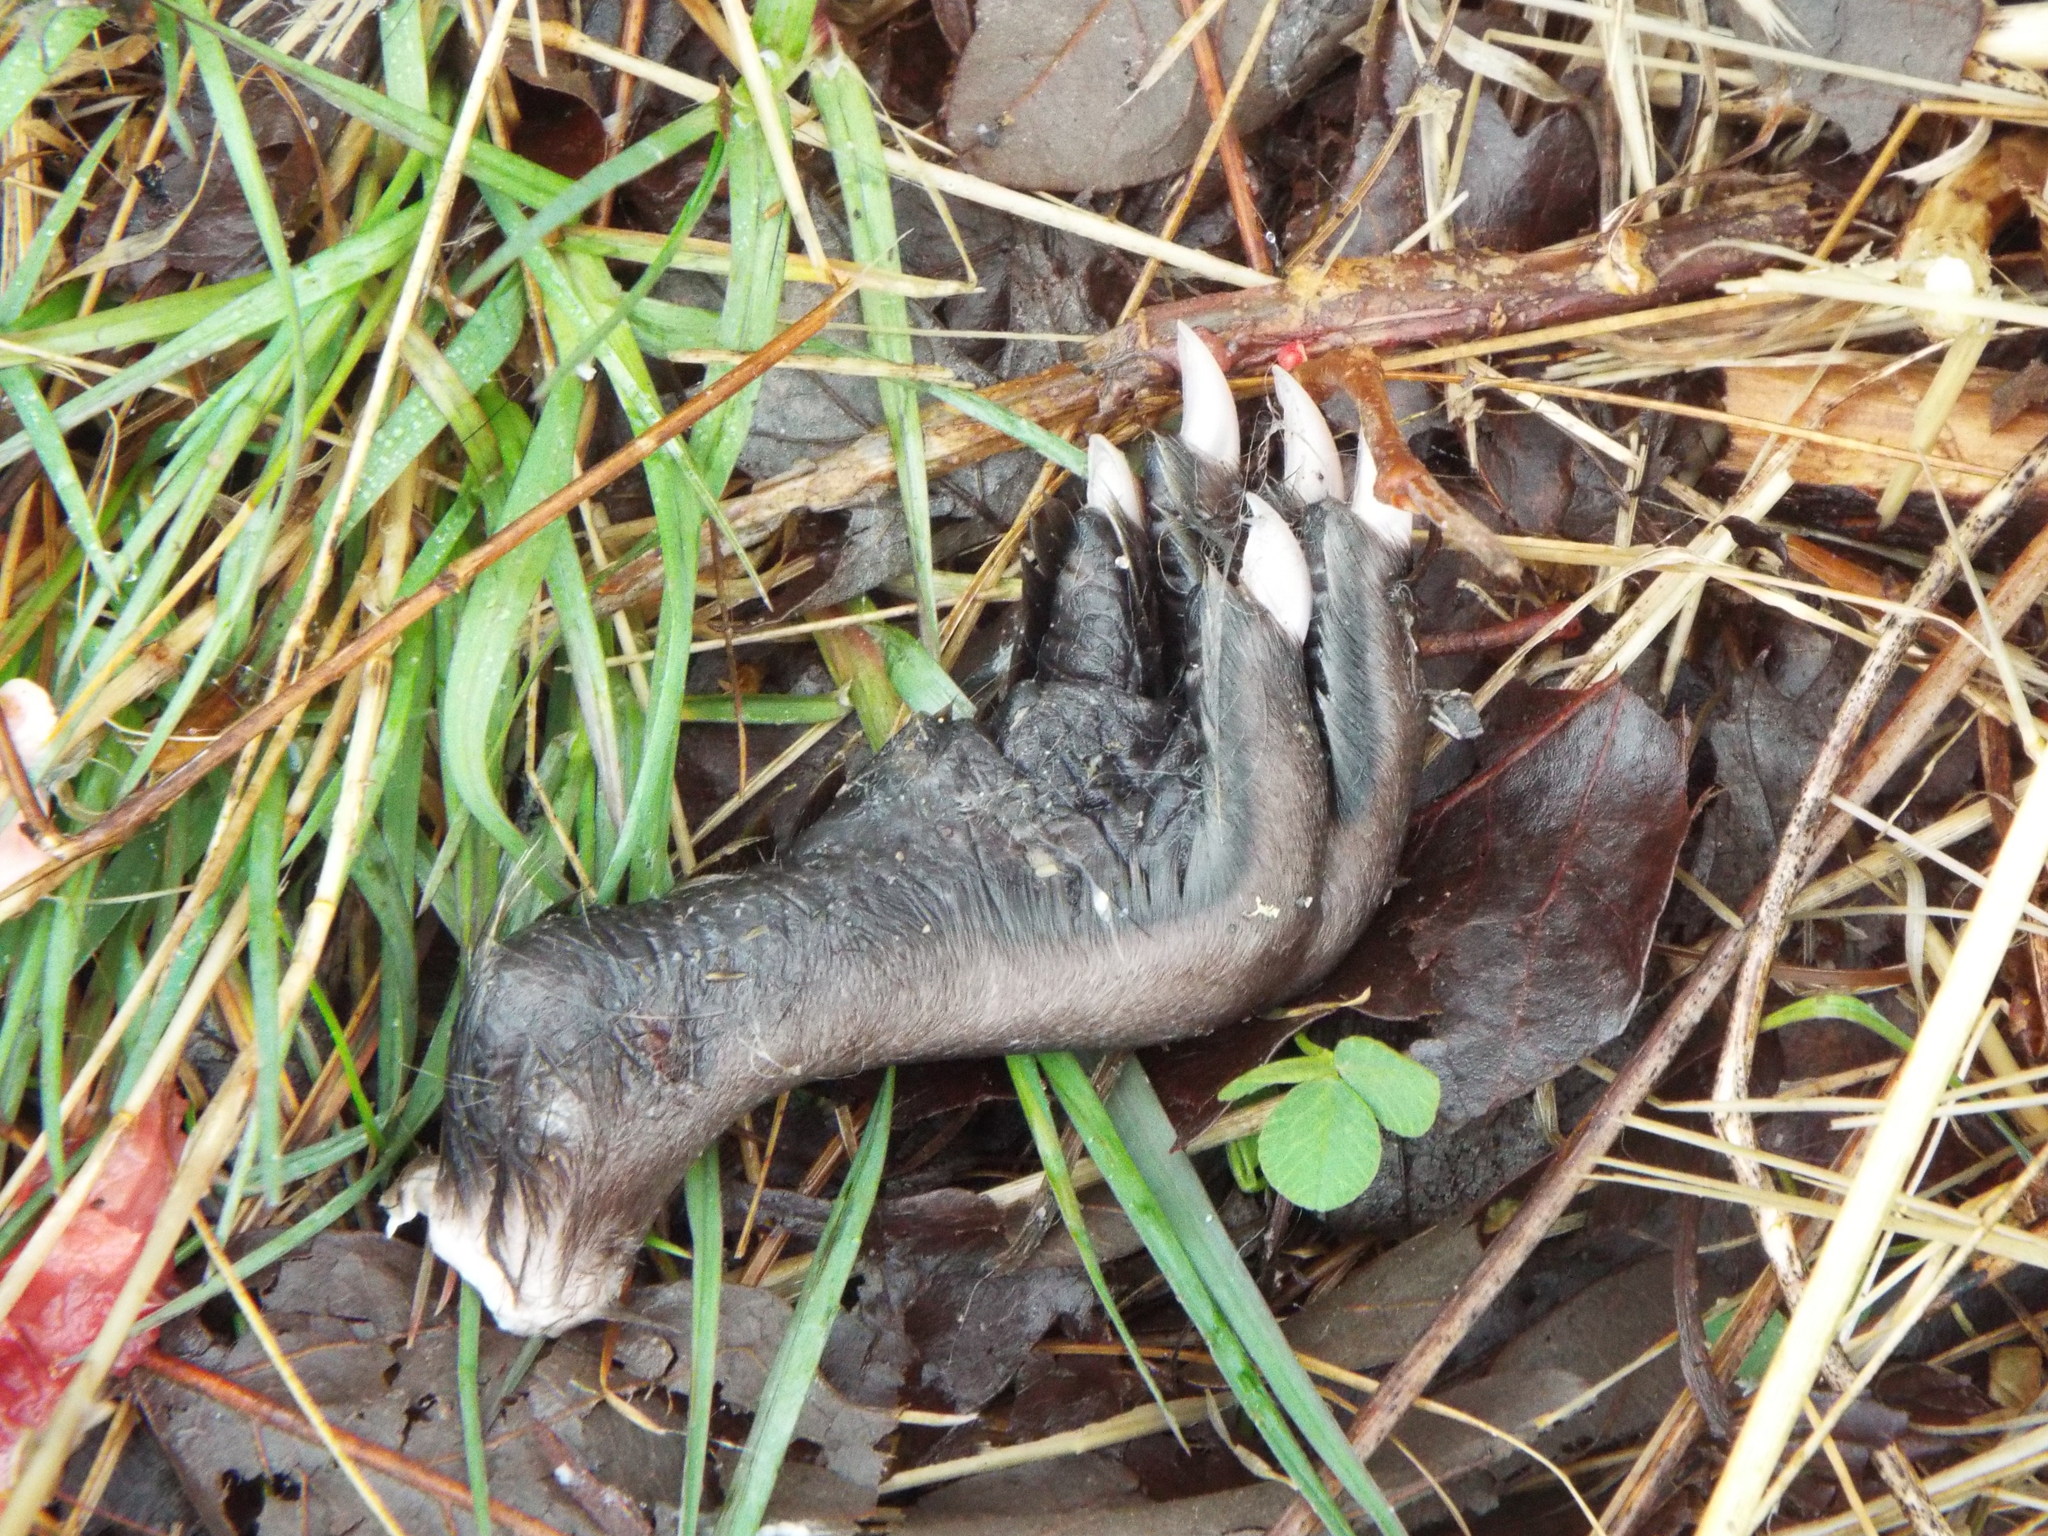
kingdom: Animalia
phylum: Chordata
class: Mammalia
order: Rodentia
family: Cricetidae
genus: Ondatra
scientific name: Ondatra zibethicus
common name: Muskrat
